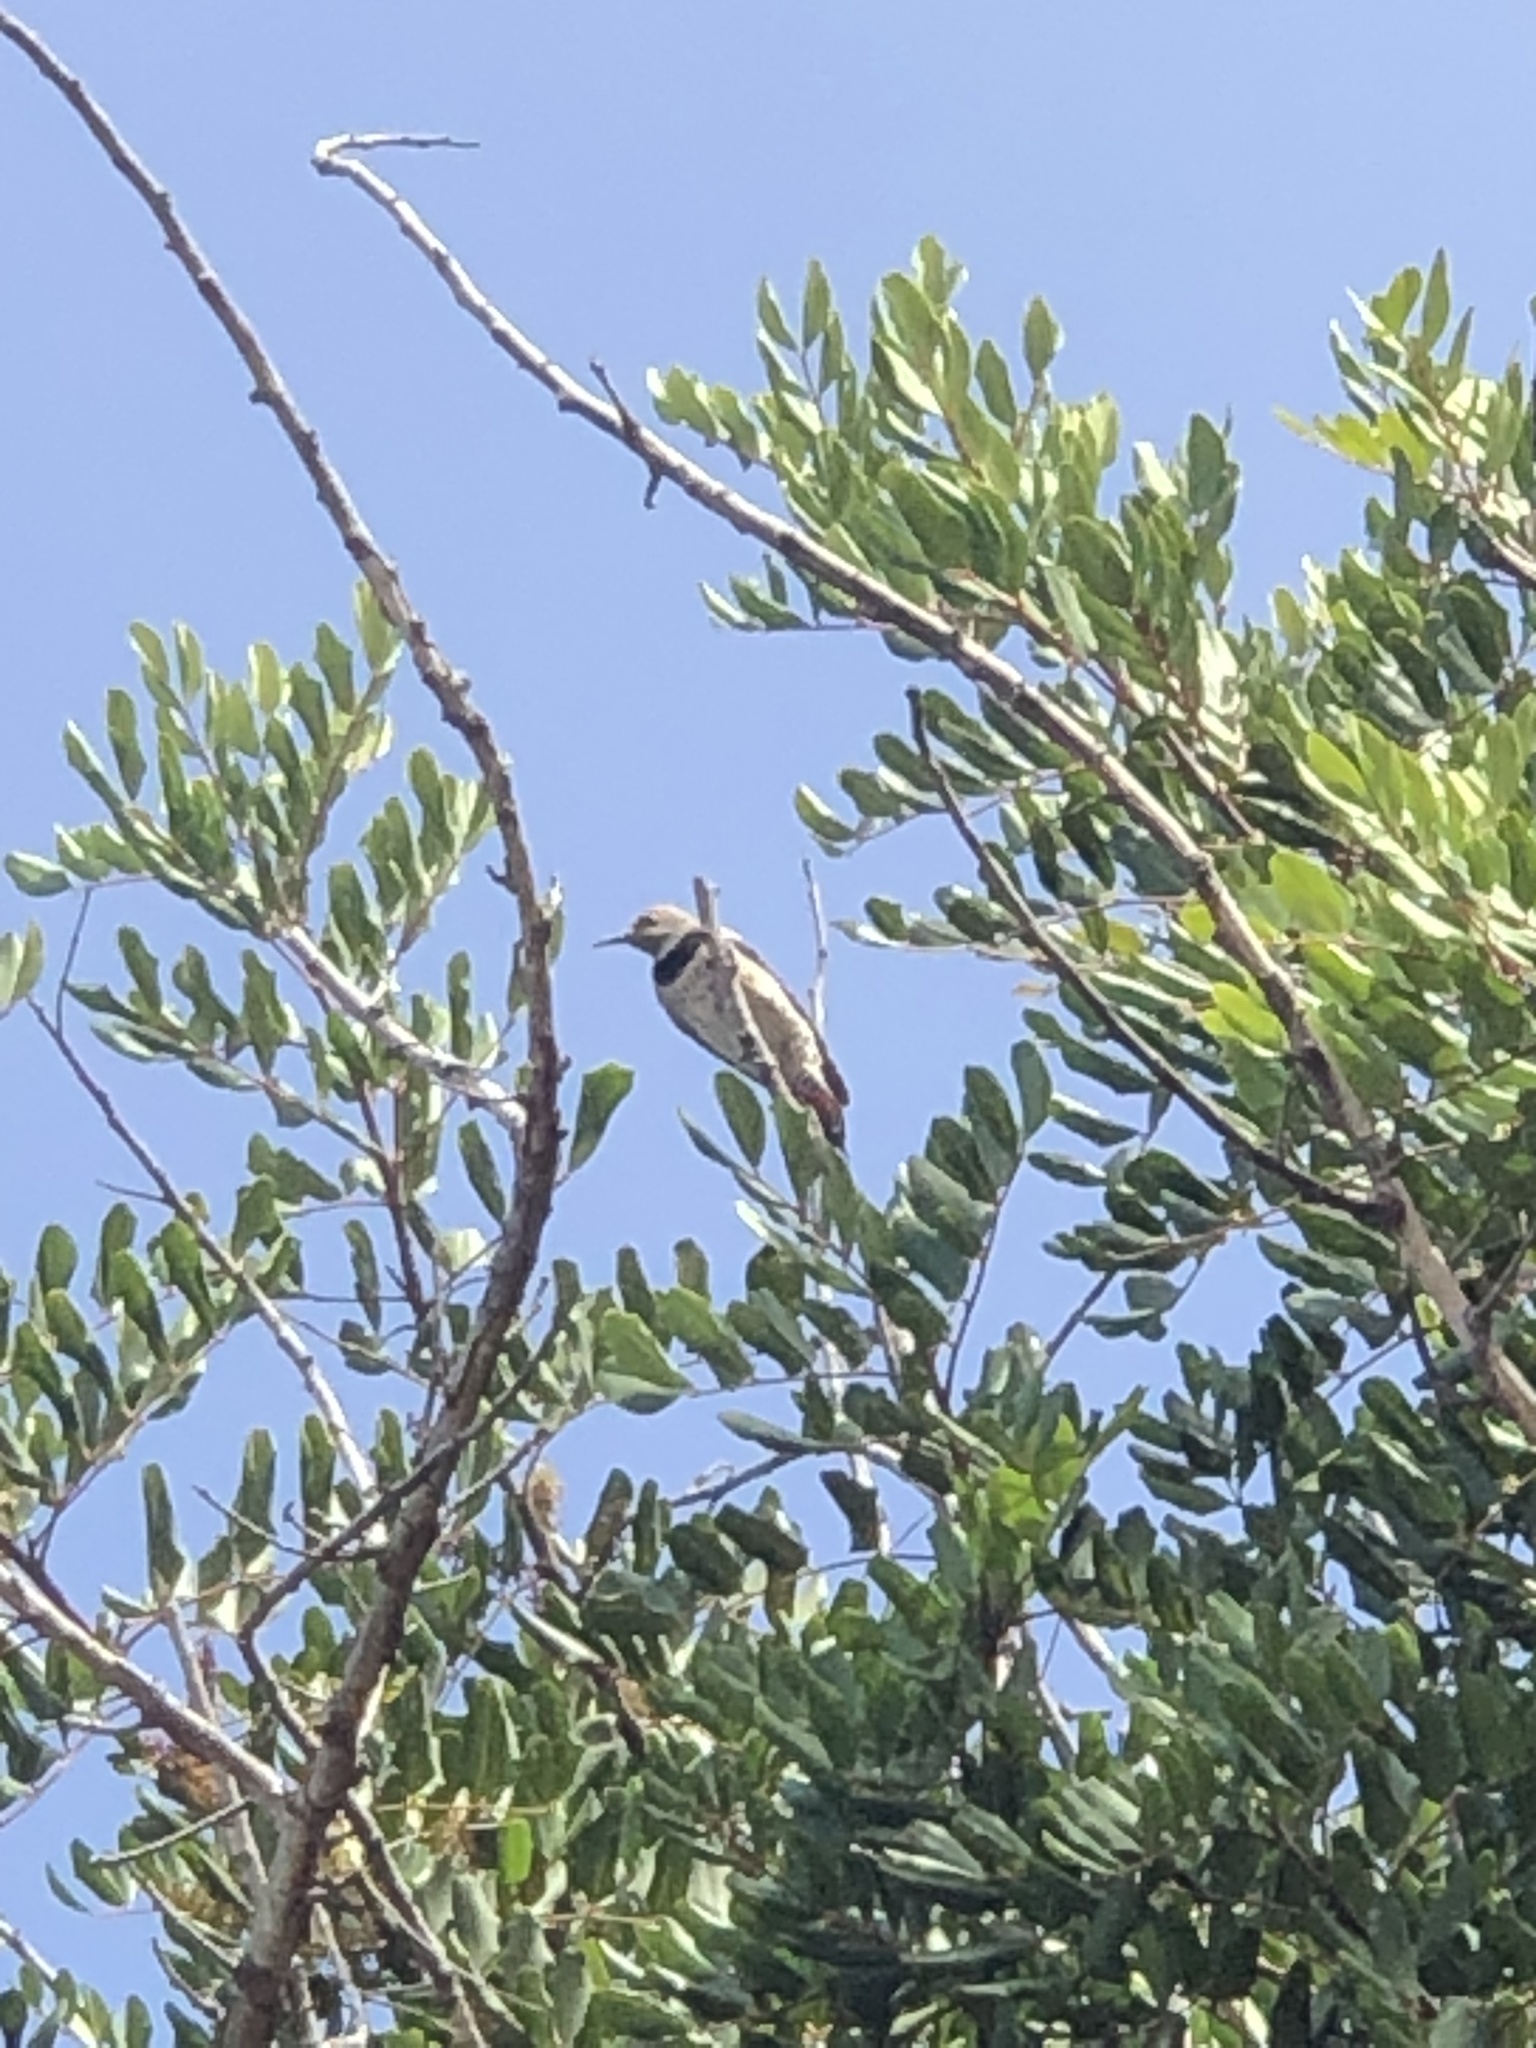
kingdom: Animalia
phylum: Chordata
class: Aves
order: Piciformes
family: Picidae
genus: Colaptes
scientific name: Colaptes auratus
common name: Northern flicker
